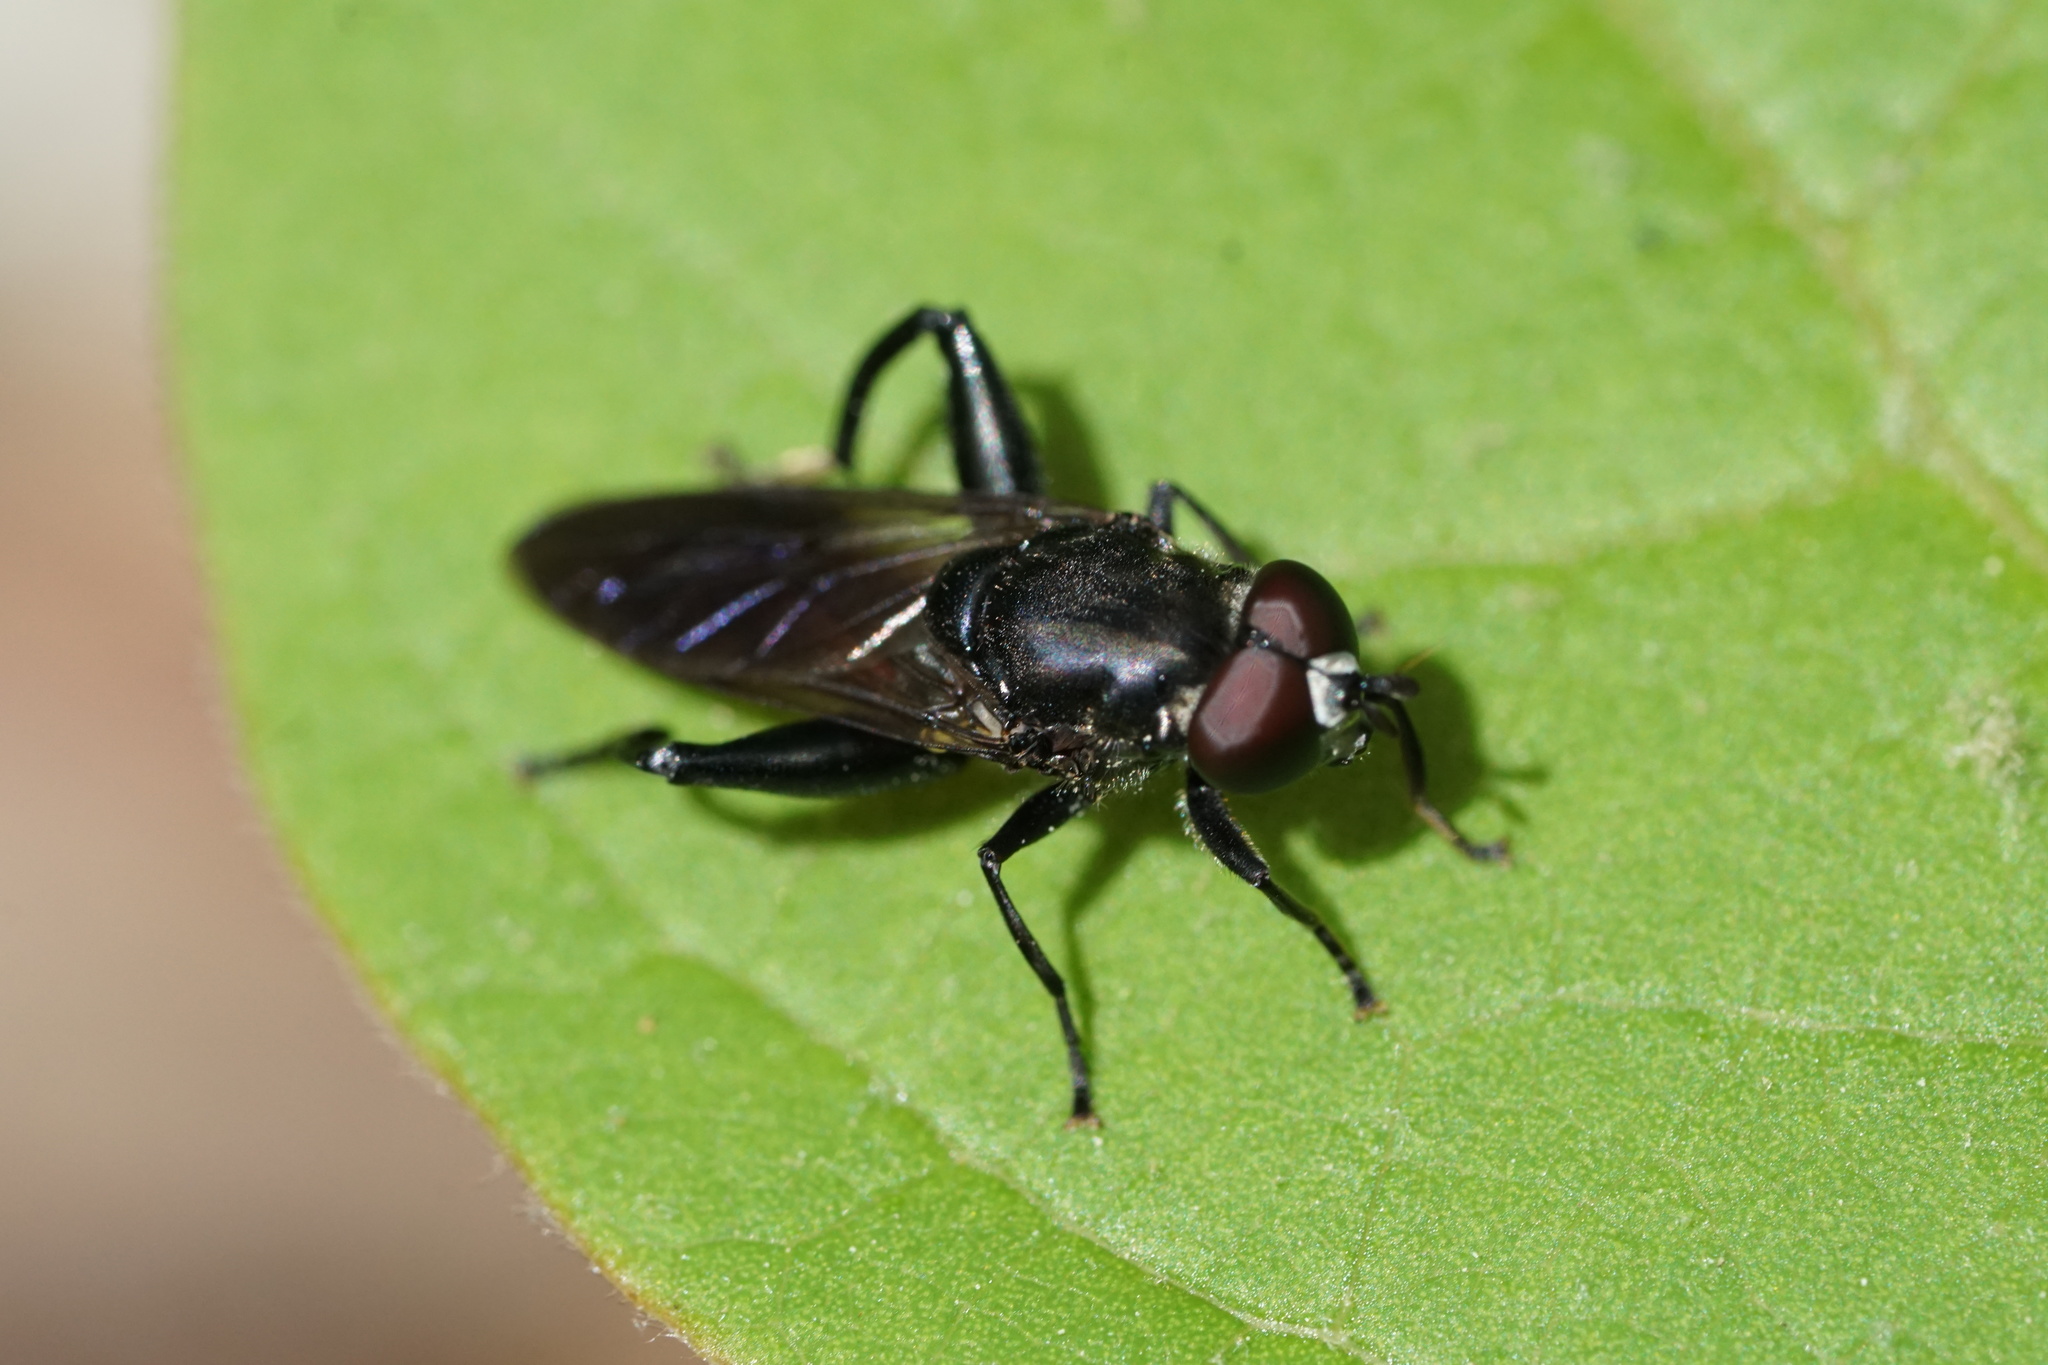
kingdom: Animalia
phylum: Arthropoda
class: Insecta
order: Diptera
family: Syrphidae
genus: Chalcosyrphus
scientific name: Chalcosyrphus piger
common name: Short-haired leafwalker
